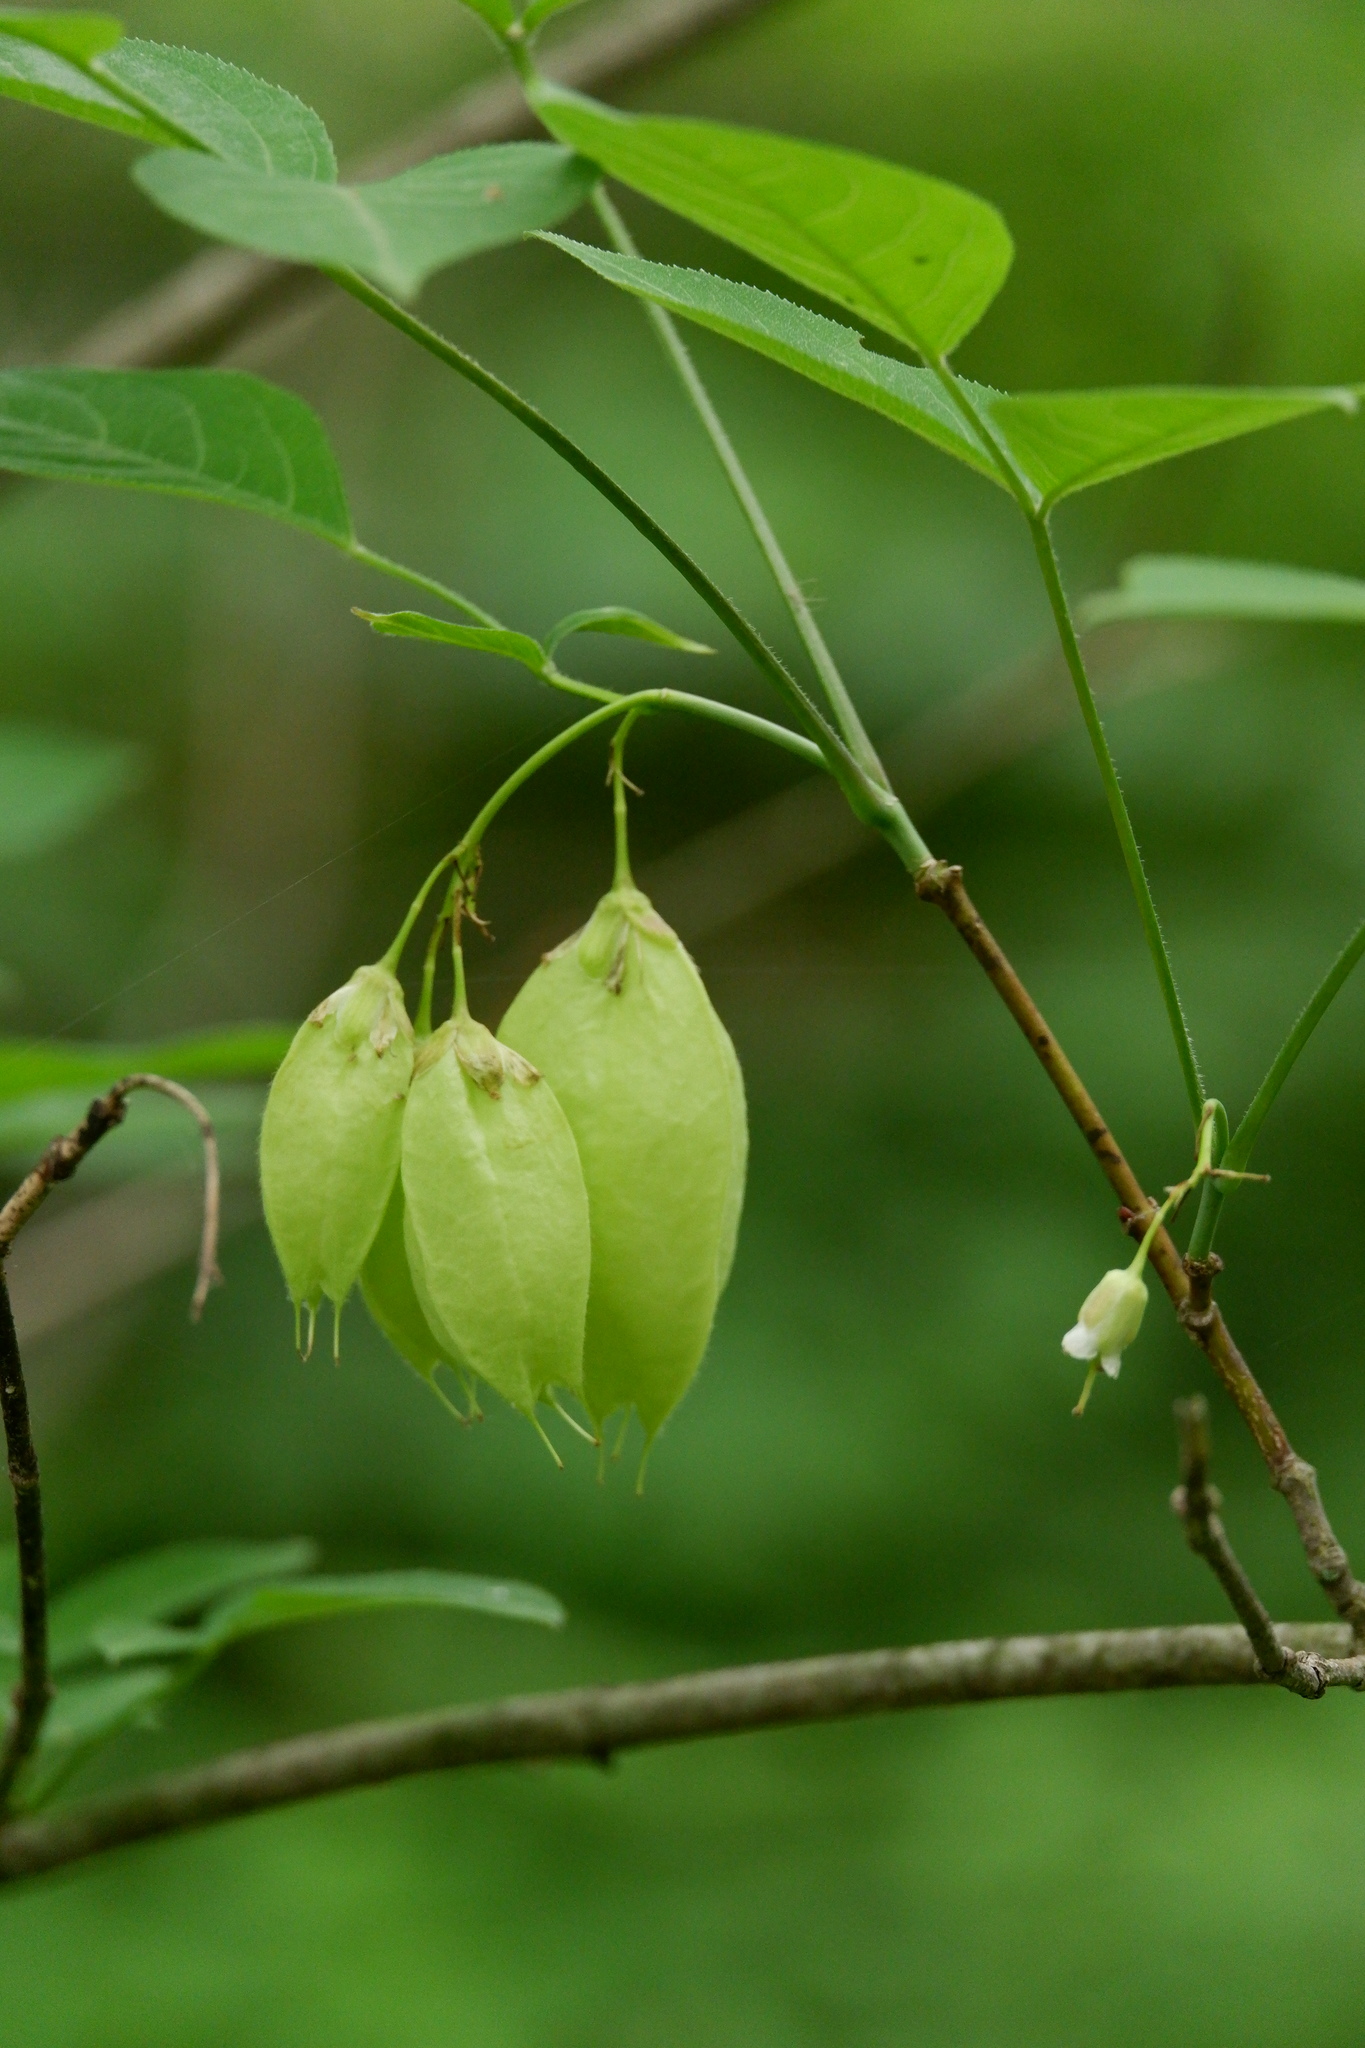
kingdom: Plantae
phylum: Tracheophyta
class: Magnoliopsida
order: Crossosomatales
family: Staphyleaceae
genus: Staphylea
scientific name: Staphylea trifolia
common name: American bladdernut
